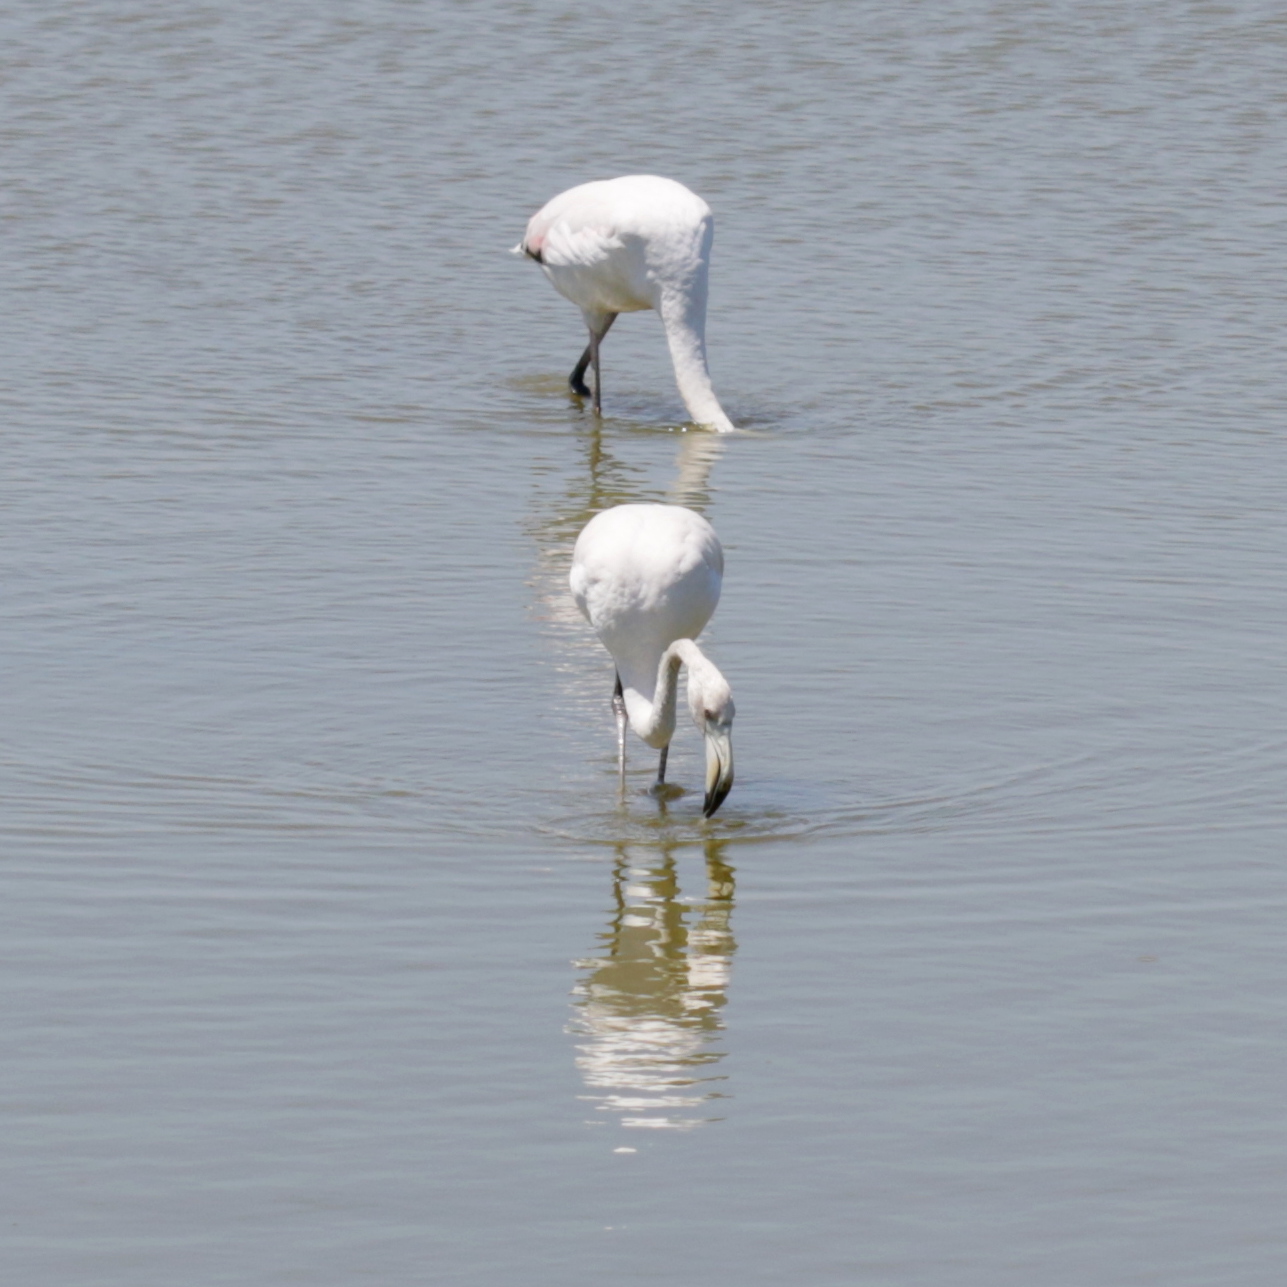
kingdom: Animalia
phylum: Chordata
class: Aves
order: Phoenicopteriformes
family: Phoenicopteridae
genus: Phoenicopterus
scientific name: Phoenicopterus roseus
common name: Greater flamingo
